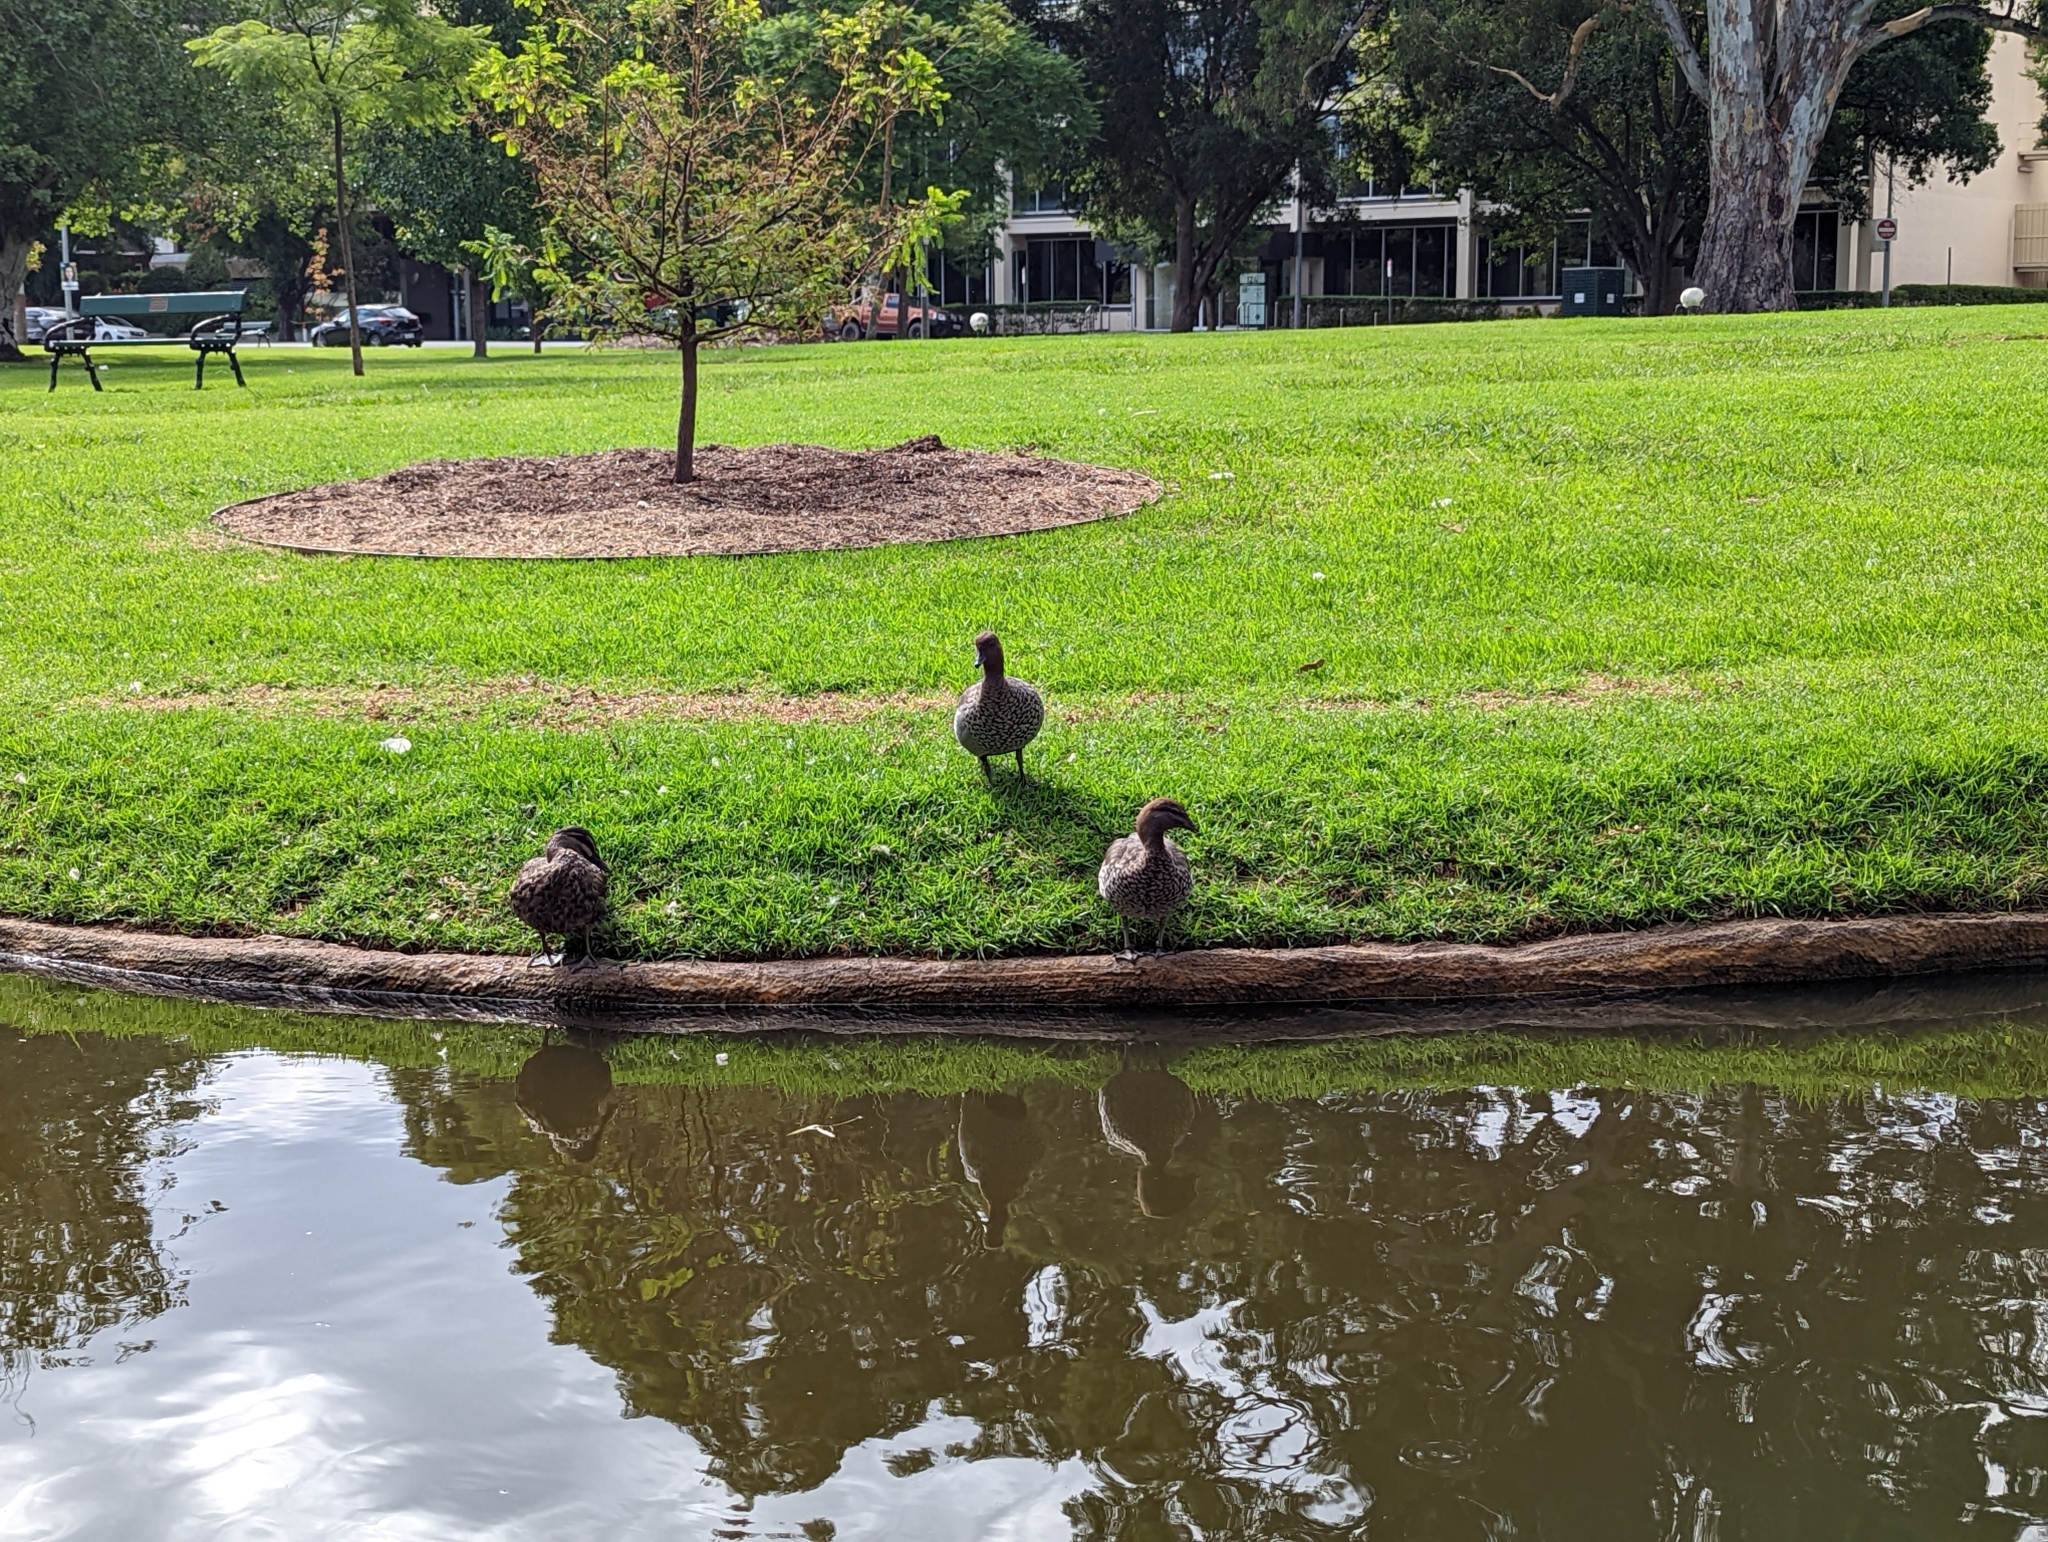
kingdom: Animalia
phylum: Chordata
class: Aves
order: Anseriformes
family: Anatidae
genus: Chenonetta
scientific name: Chenonetta jubata
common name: Maned duck
